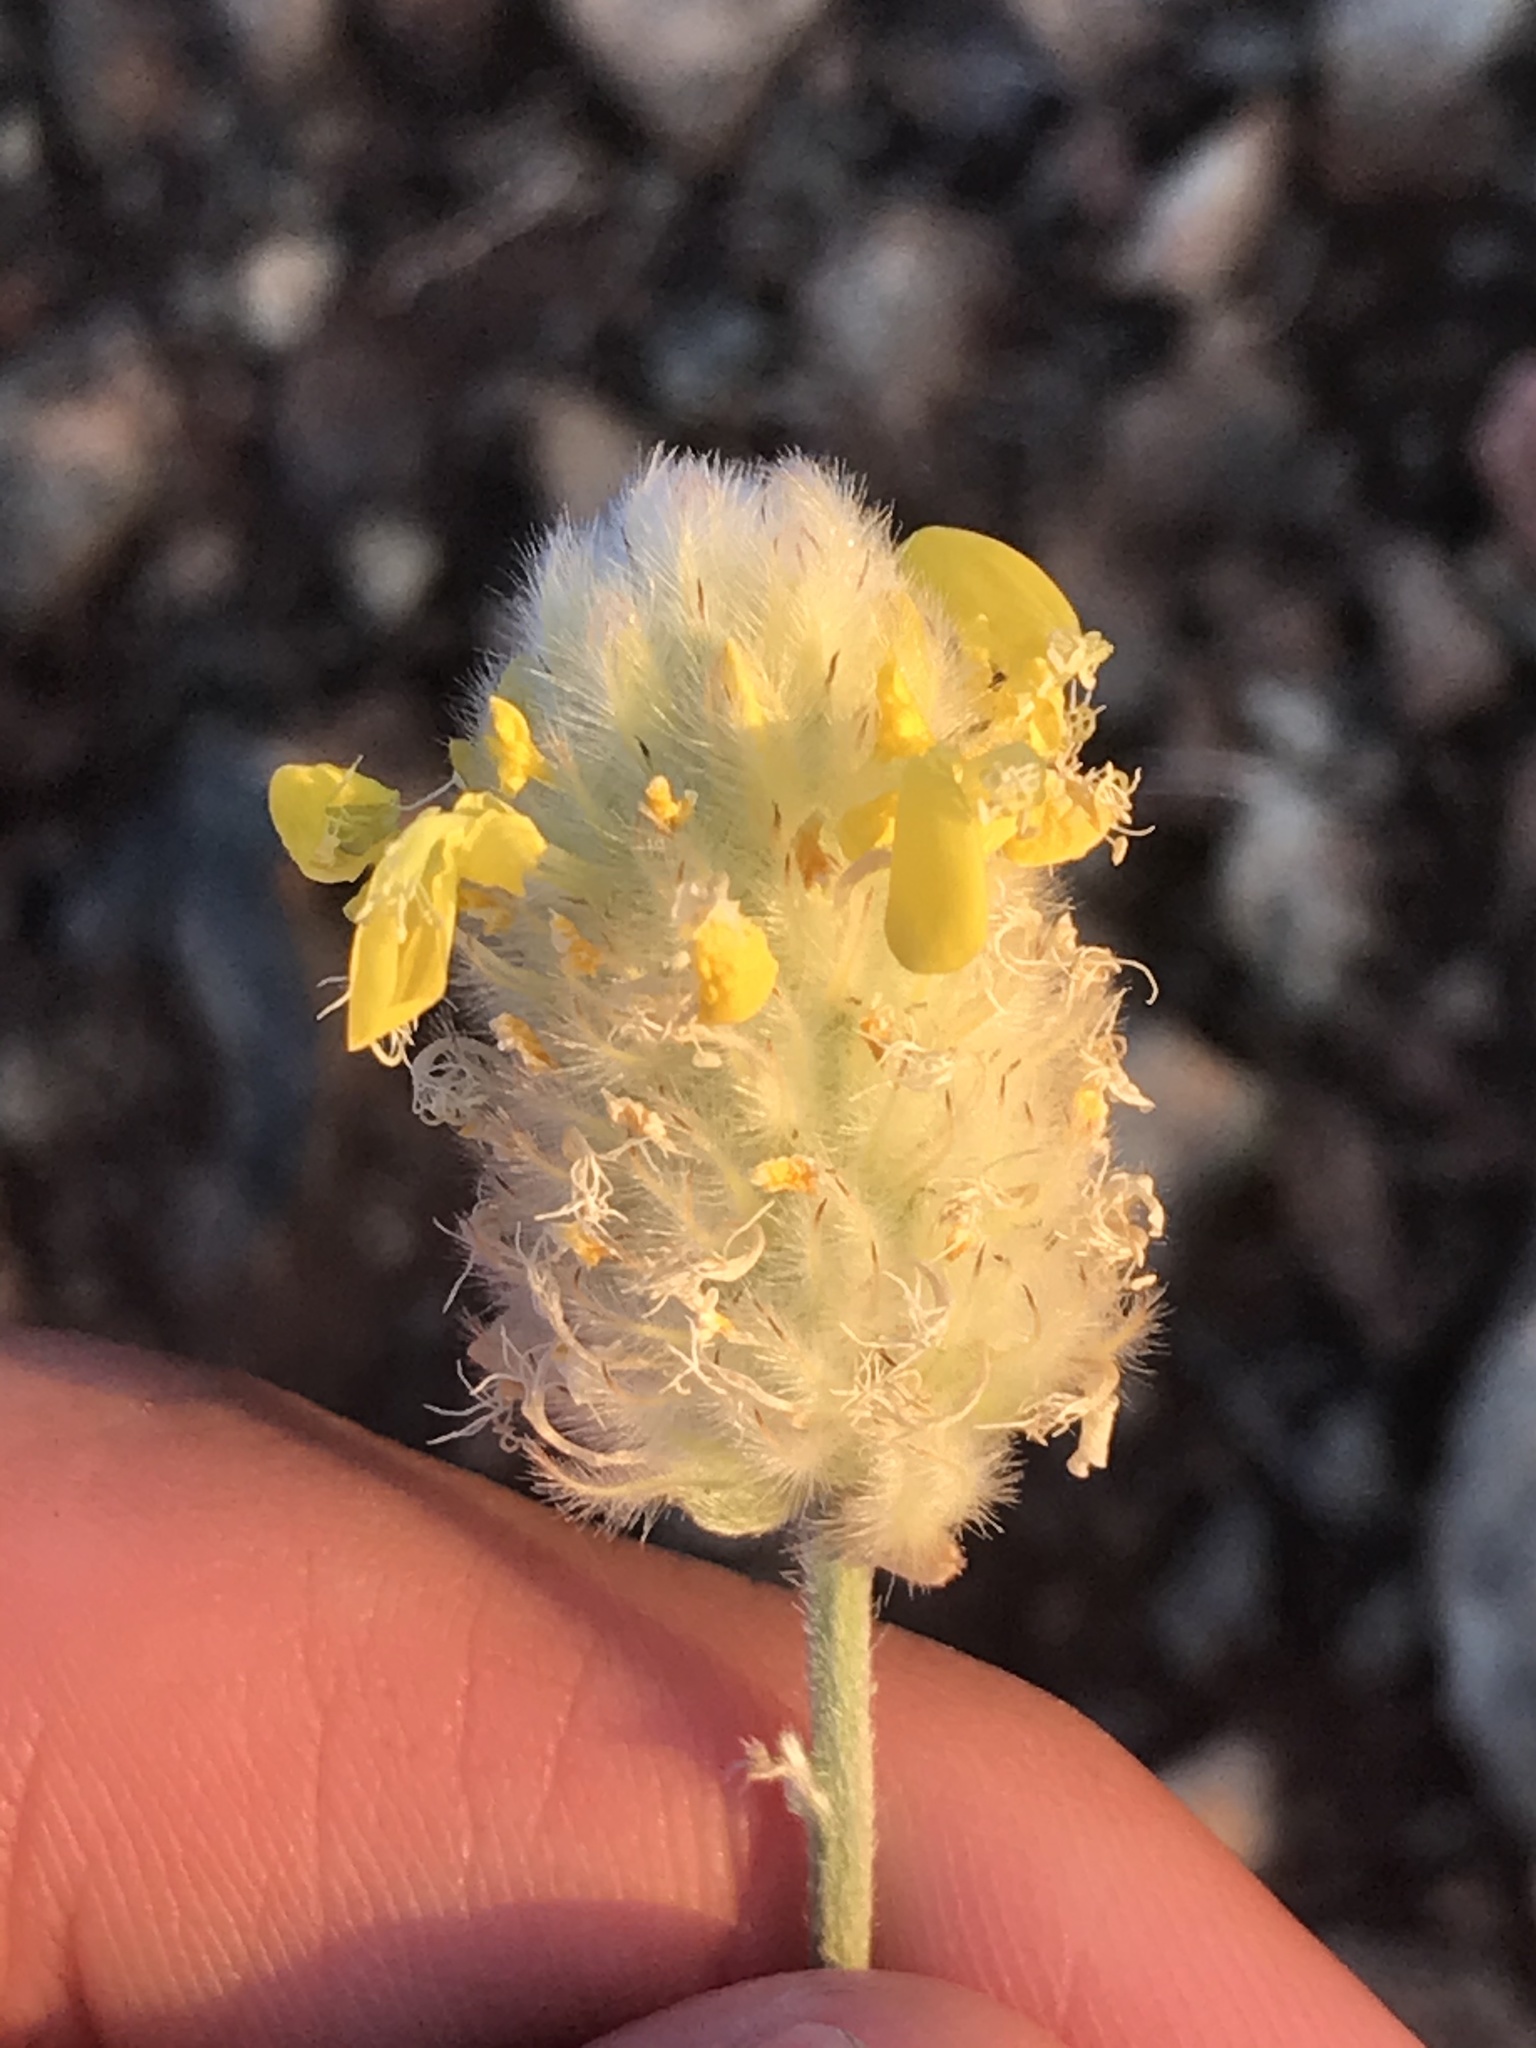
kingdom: Plantae
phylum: Tracheophyta
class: Magnoliopsida
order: Fabales
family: Fabaceae
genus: Dalea
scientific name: Dalea aurea
